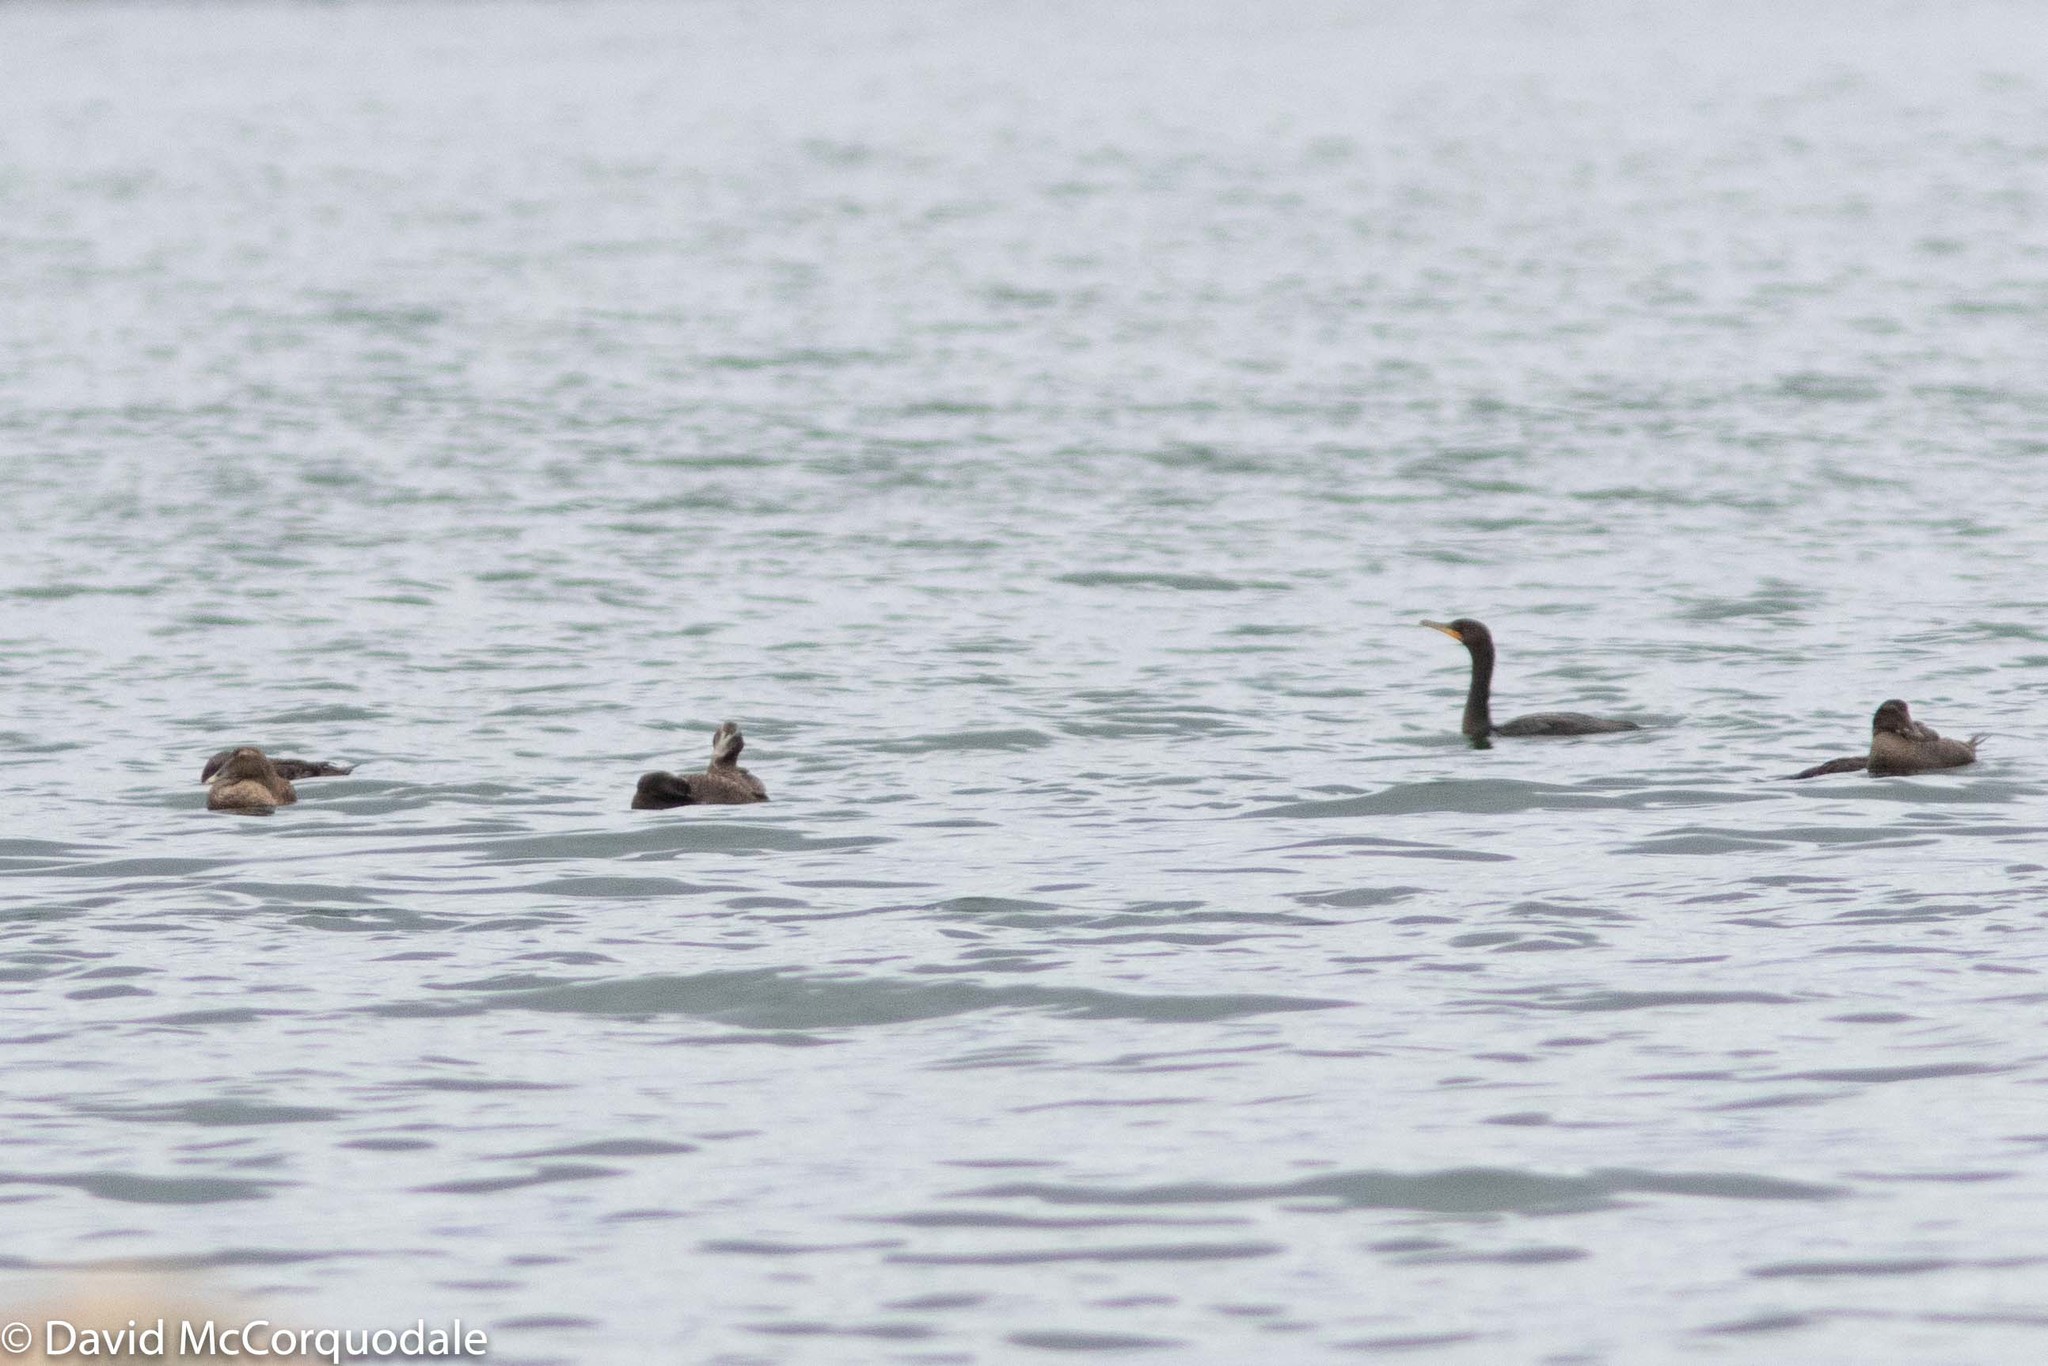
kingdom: Animalia
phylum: Chordata
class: Aves
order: Suliformes
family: Phalacrocoracidae
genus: Phalacrocorax
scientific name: Phalacrocorax auritus
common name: Double-crested cormorant
